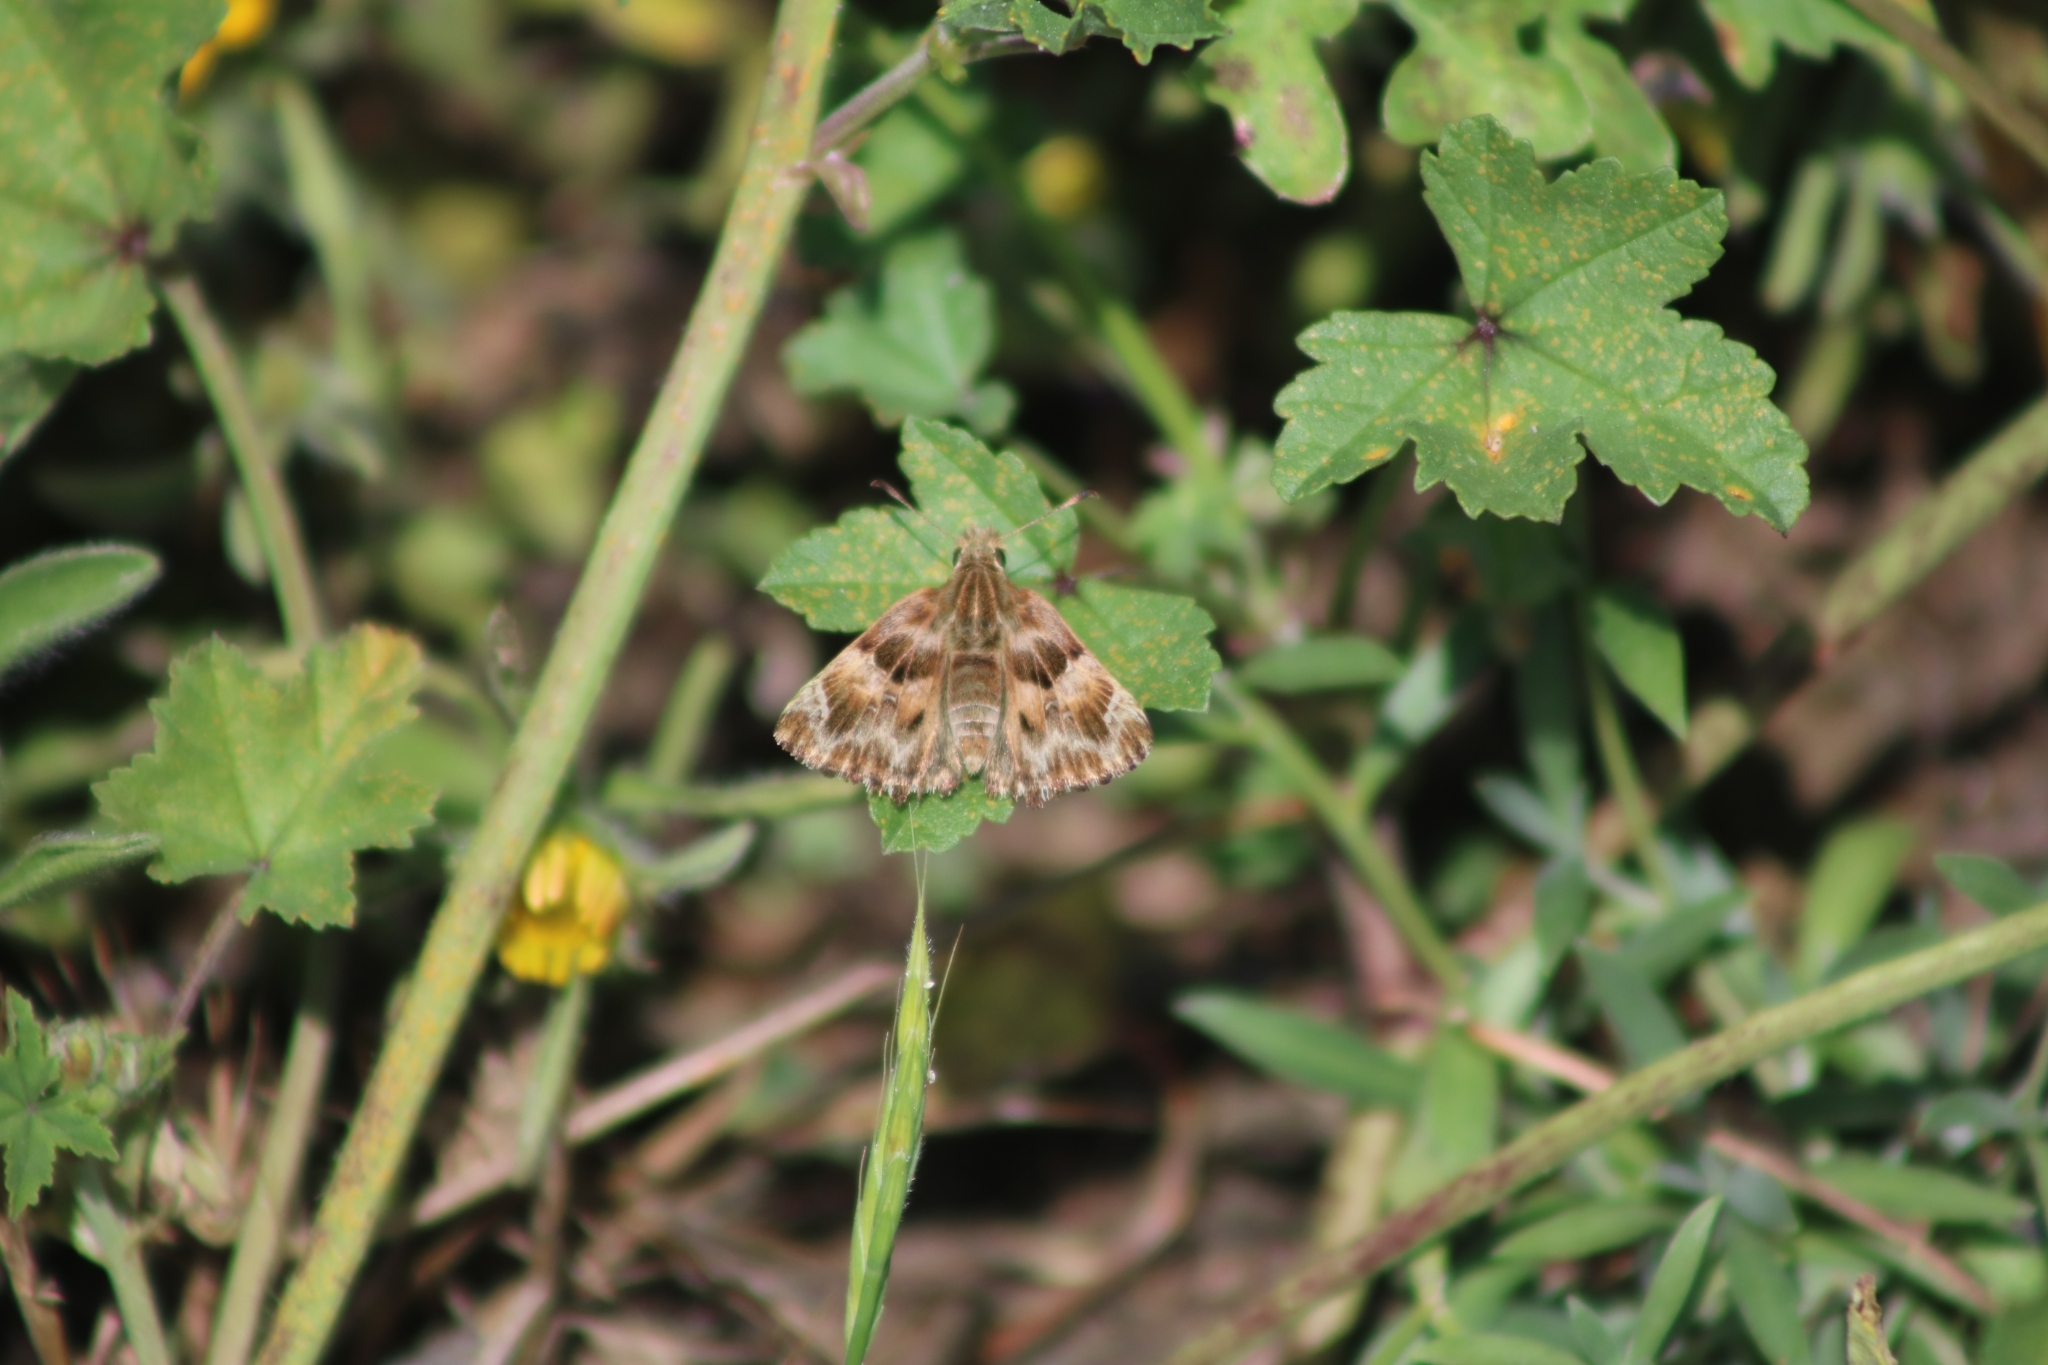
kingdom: Animalia
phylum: Arthropoda
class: Insecta
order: Lepidoptera
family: Hesperiidae
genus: Carcharodus
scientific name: Carcharodus alceae
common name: Mallow skipper
